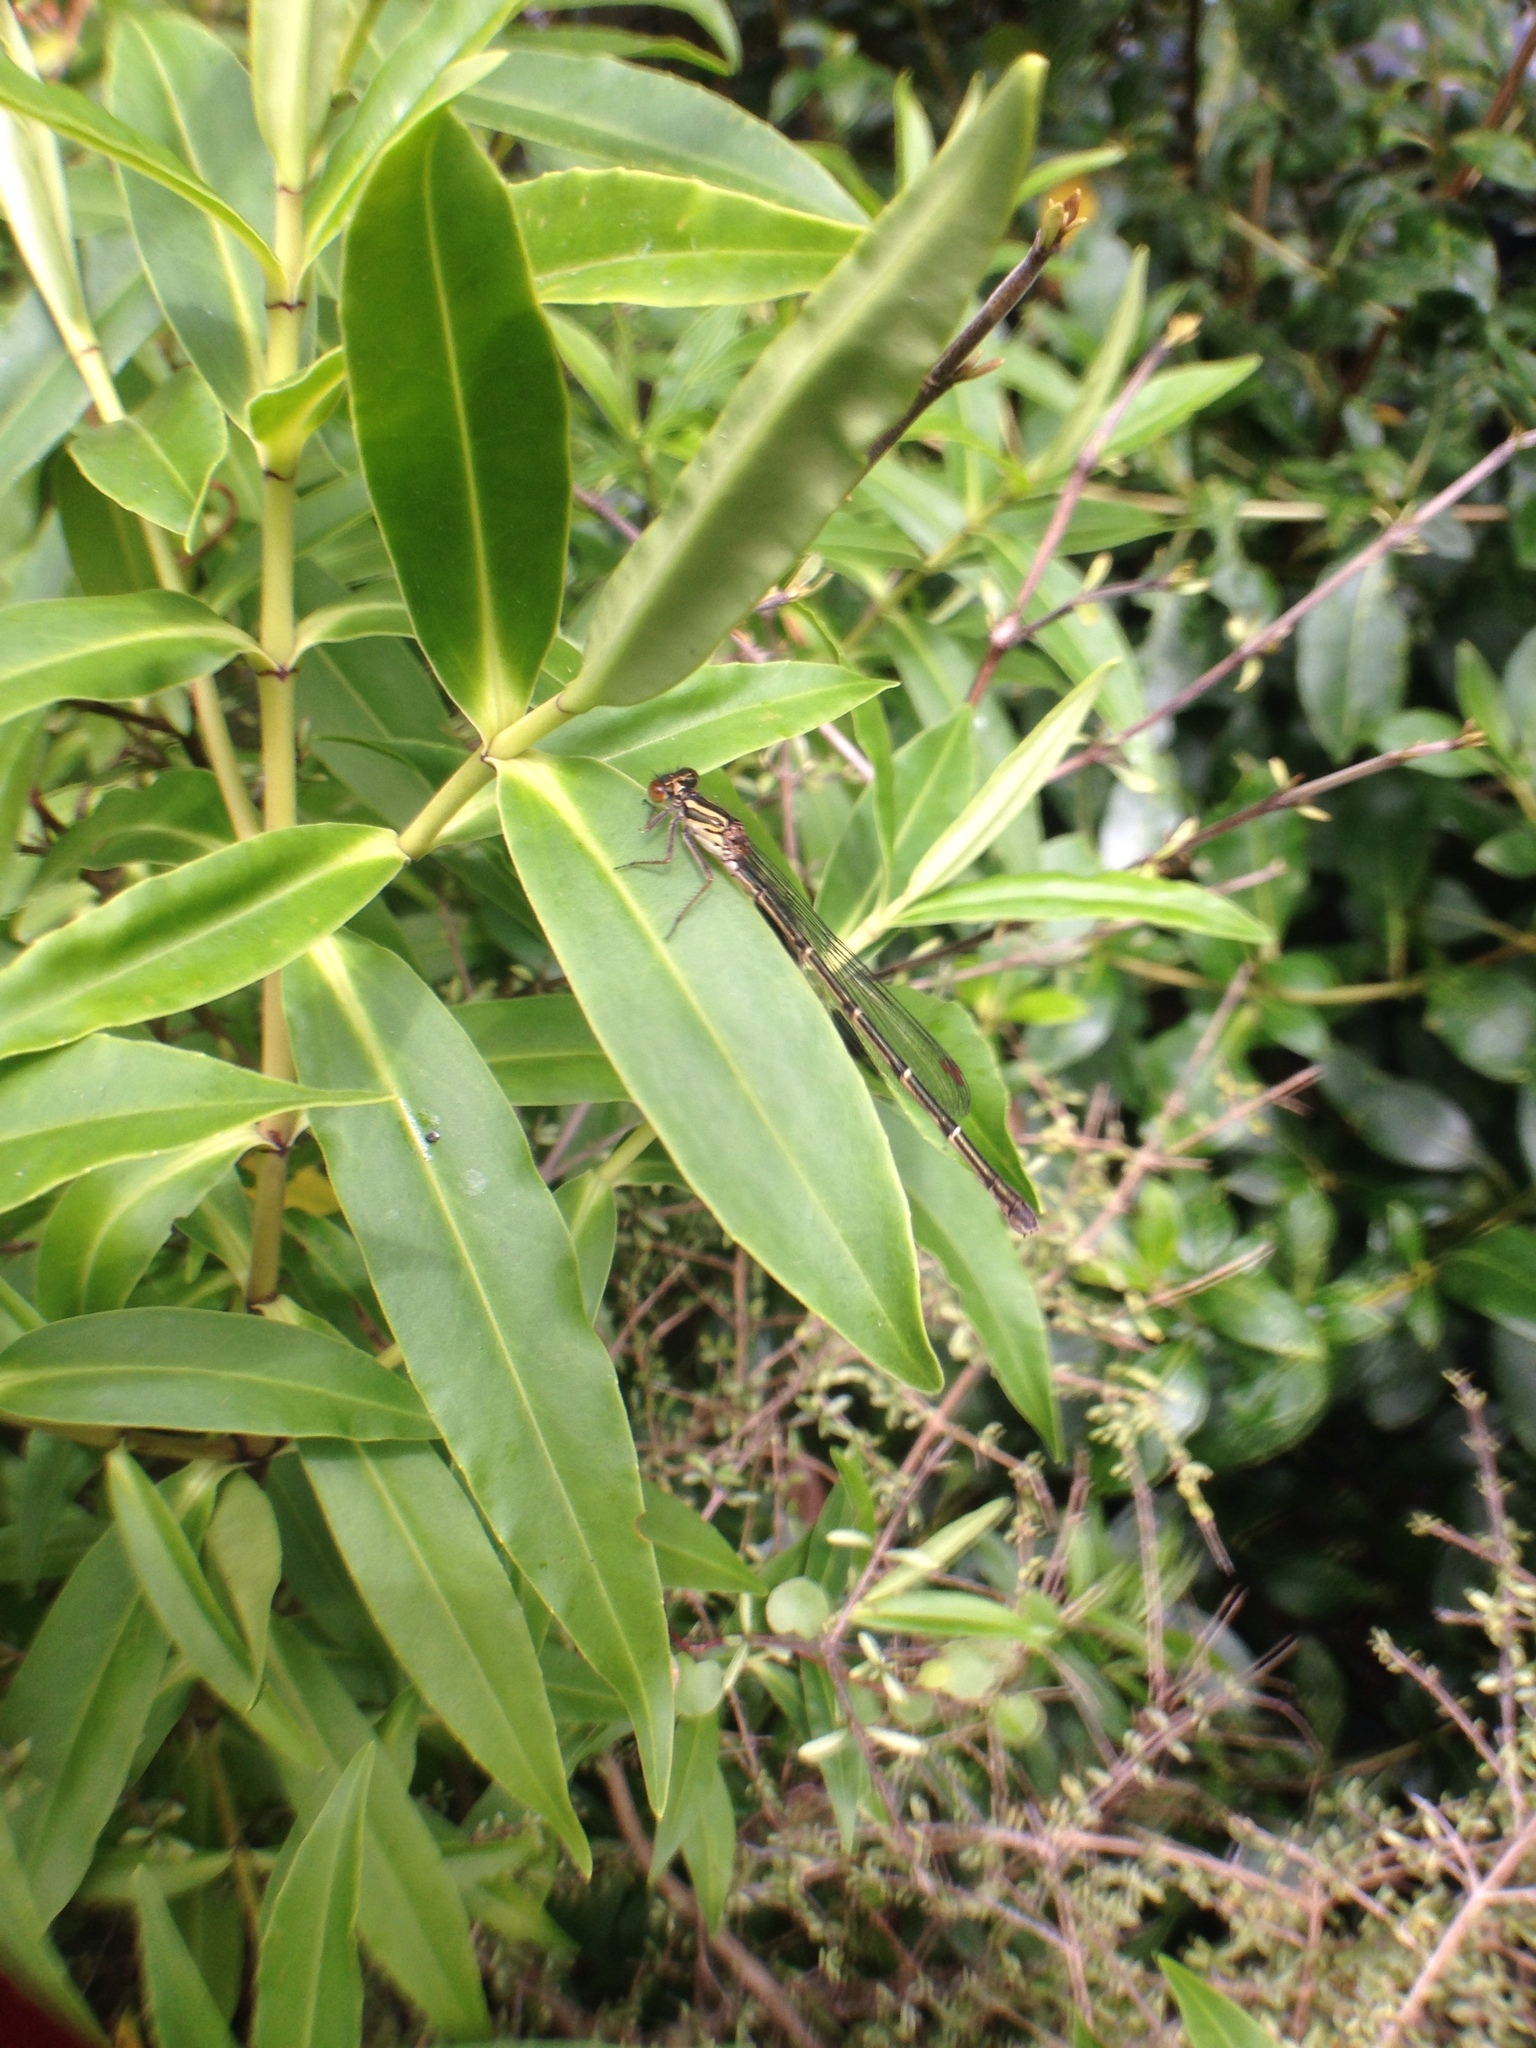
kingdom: Animalia
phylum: Arthropoda
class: Insecta
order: Odonata
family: Coenagrionidae
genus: Xanthocnemis
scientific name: Xanthocnemis zealandica
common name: Common redcoat damselfly
